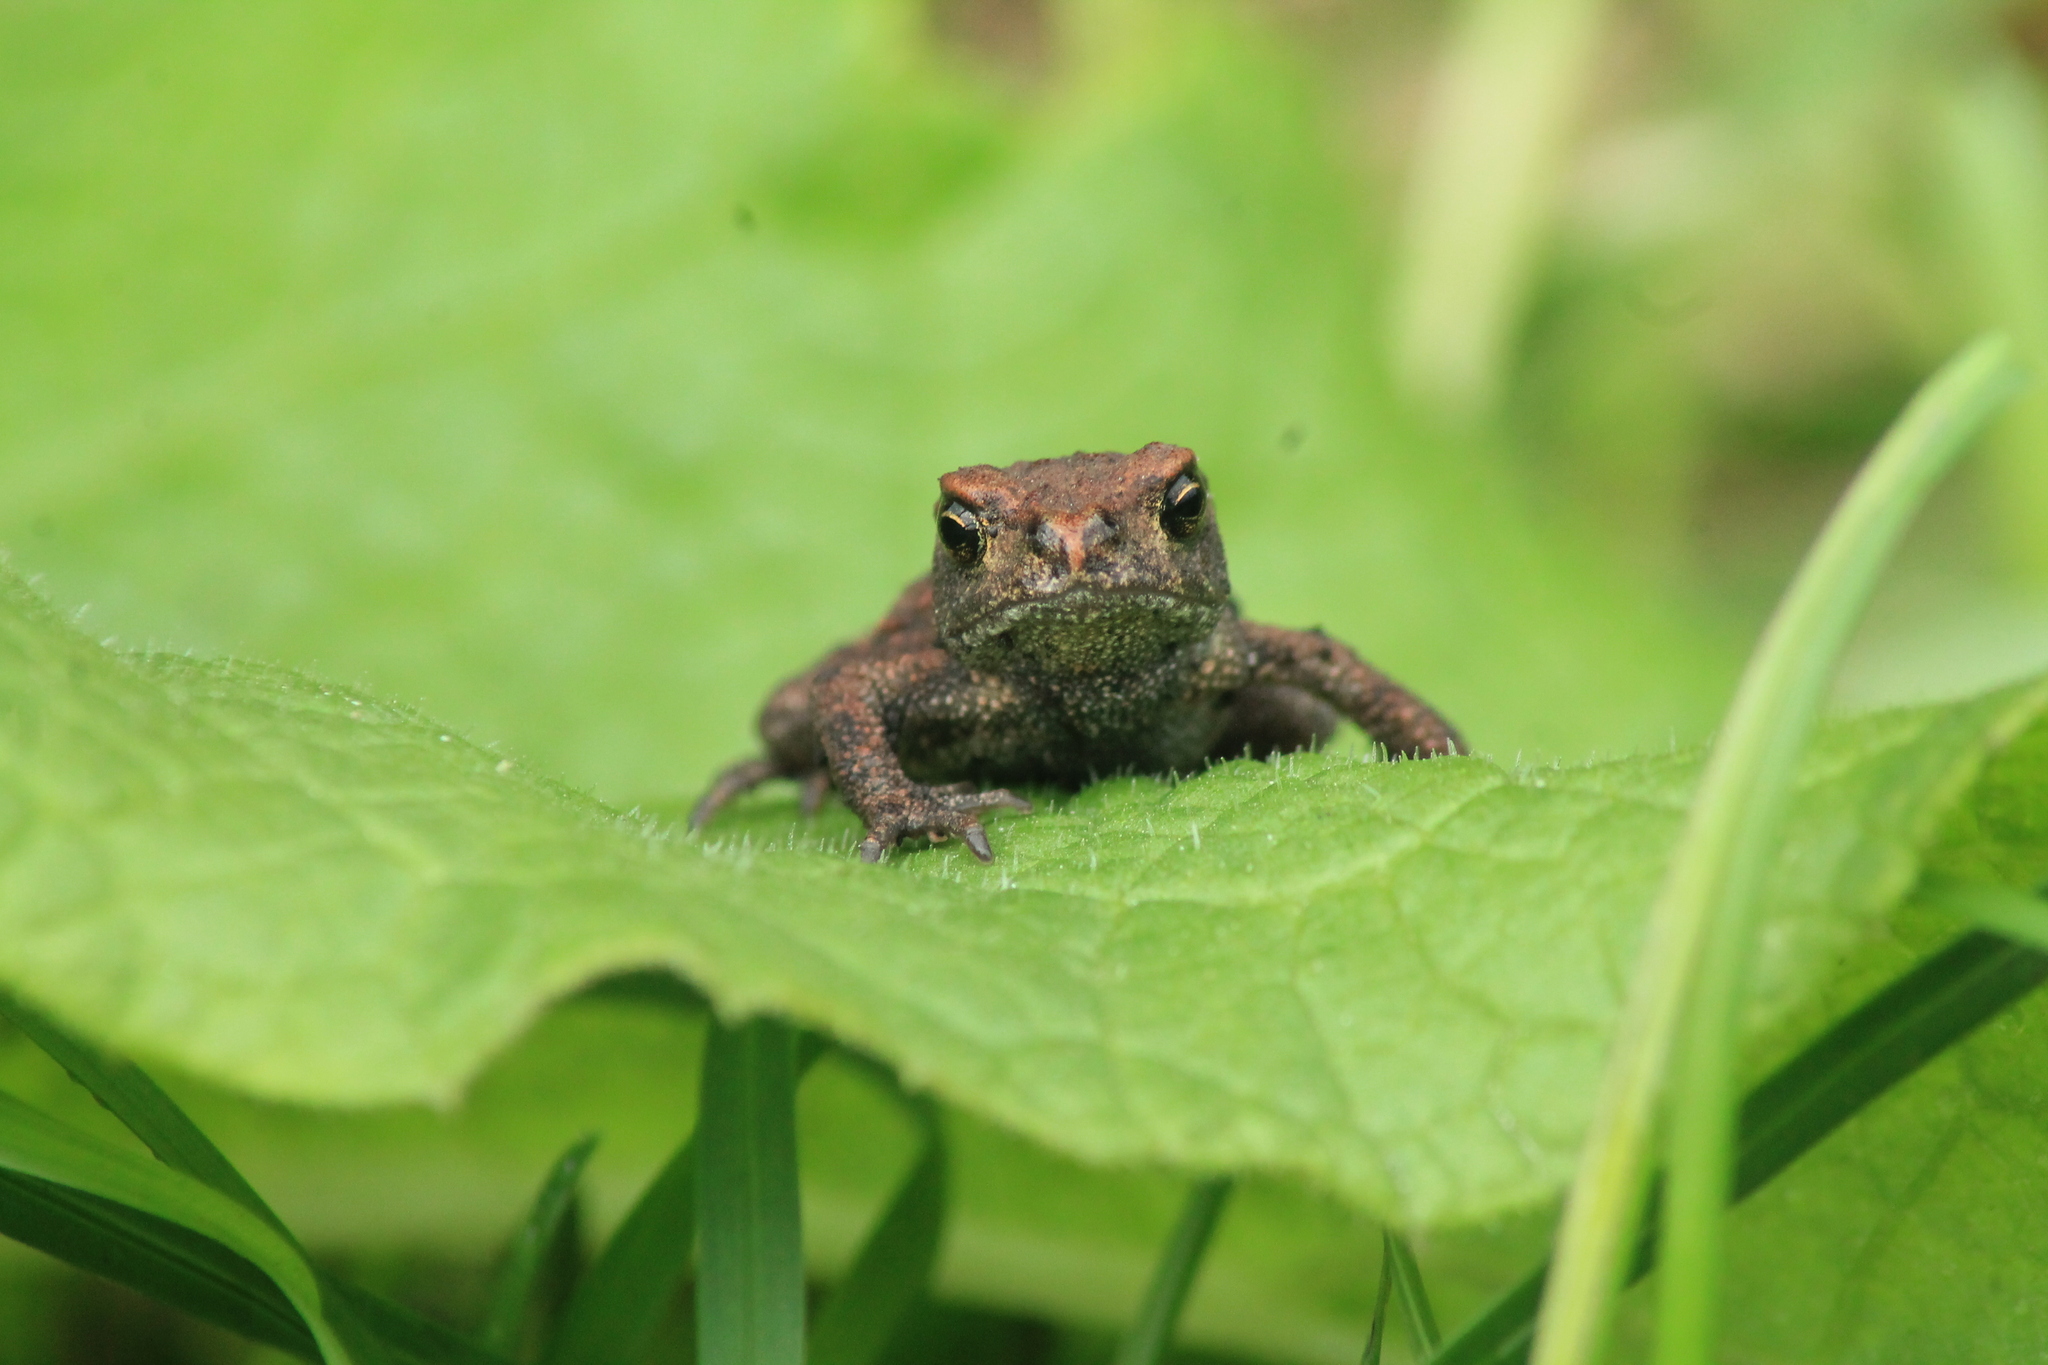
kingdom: Animalia
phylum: Chordata
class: Amphibia
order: Anura
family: Bufonidae
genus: Bufo
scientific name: Bufo bufo
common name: Common toad
